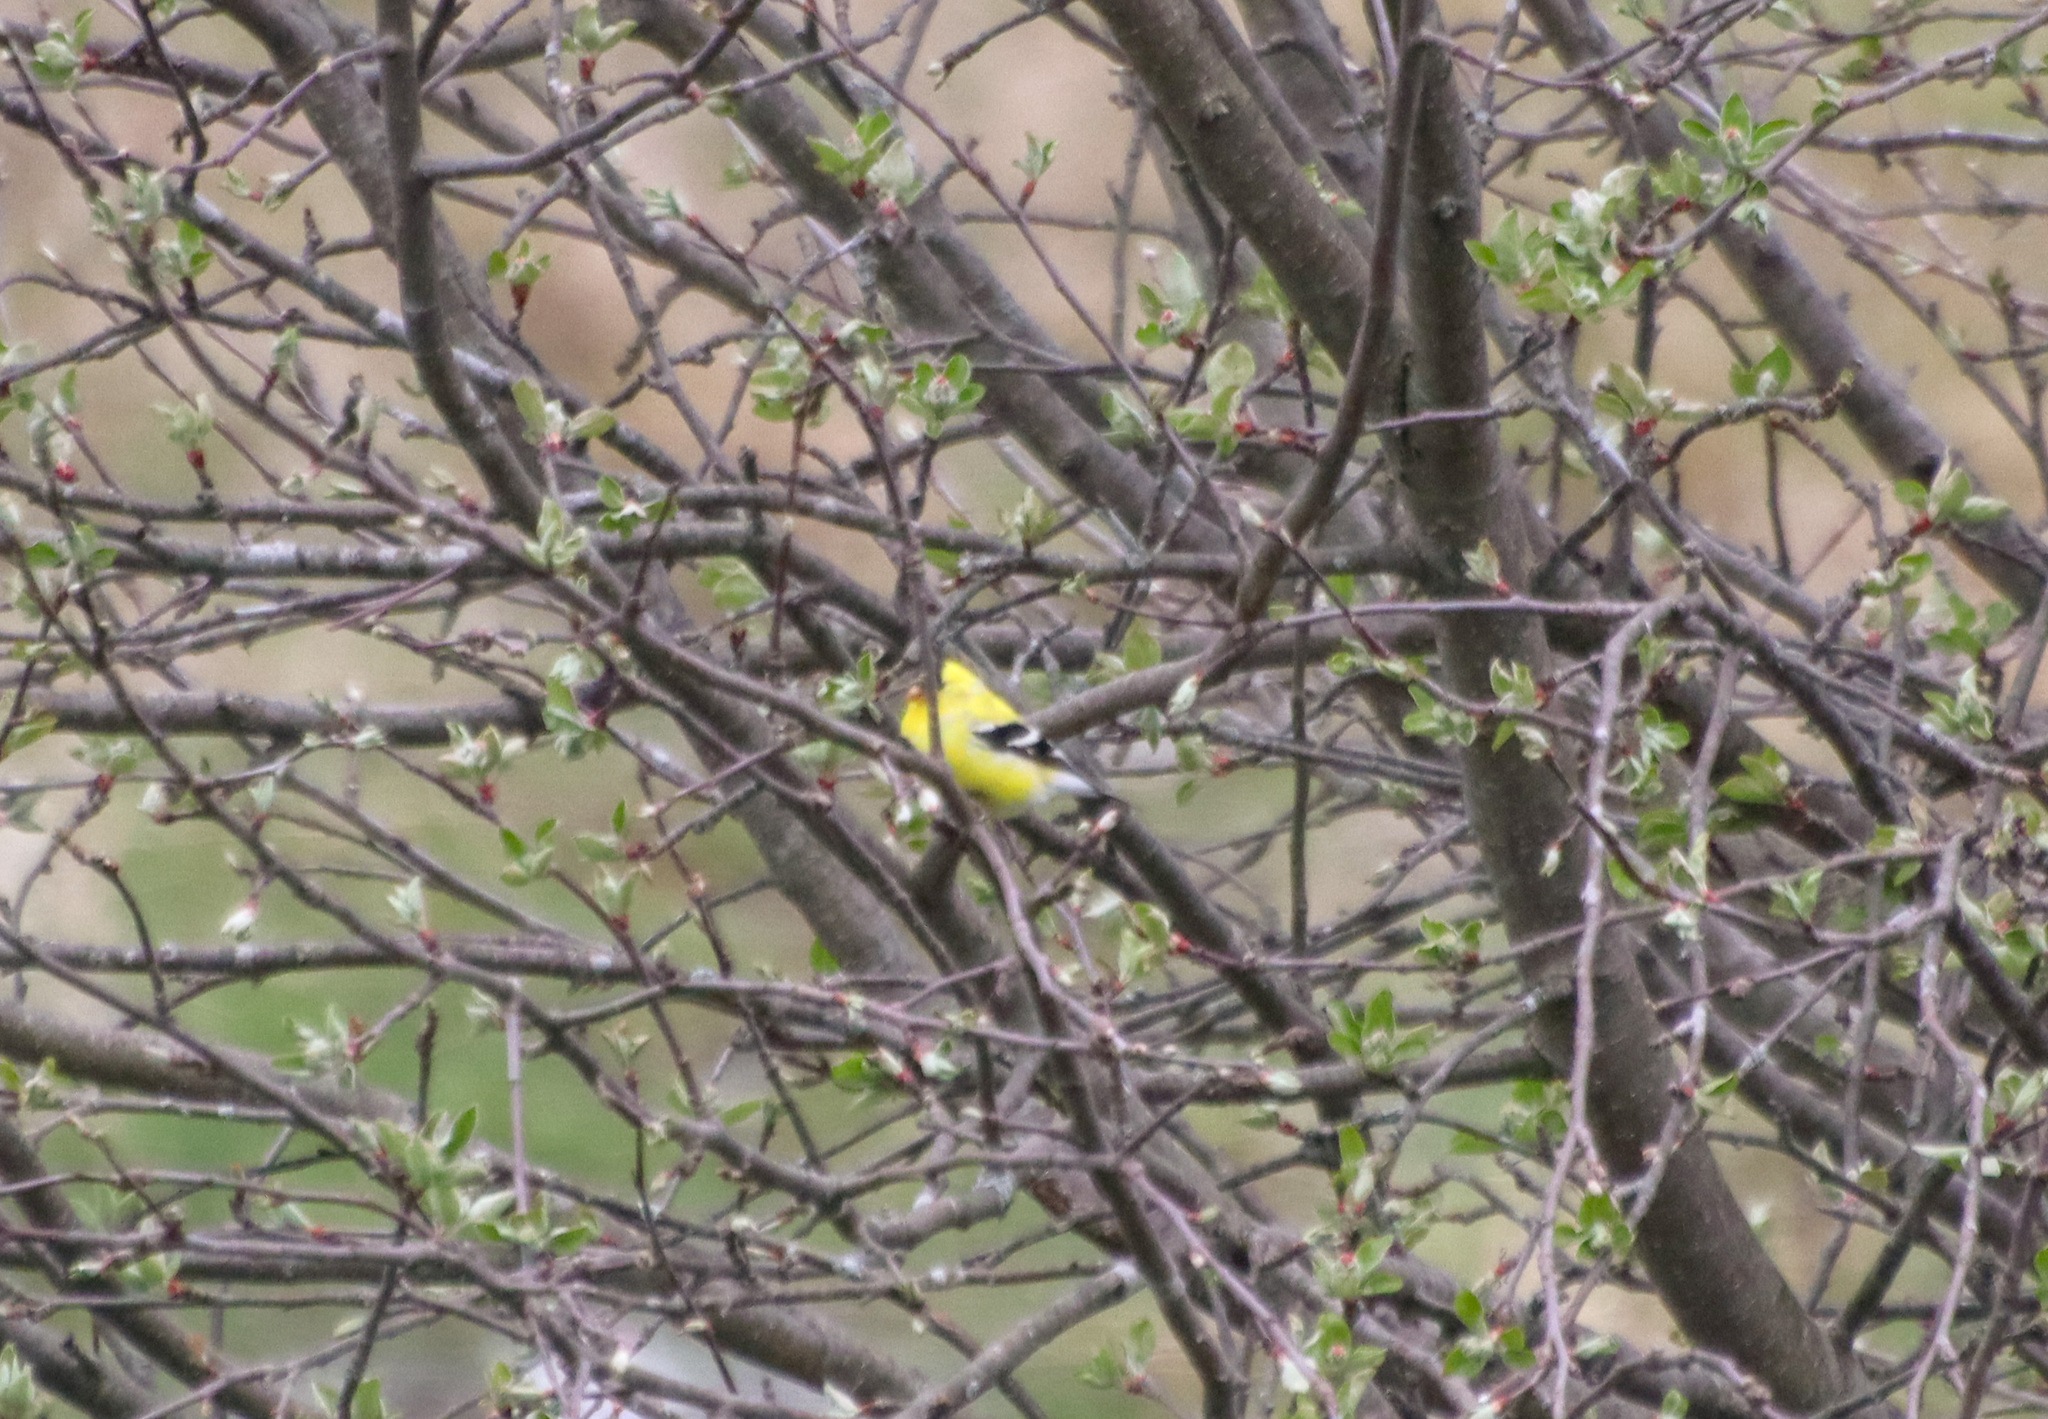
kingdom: Animalia
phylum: Chordata
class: Aves
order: Passeriformes
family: Fringillidae
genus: Spinus
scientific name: Spinus tristis
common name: American goldfinch
